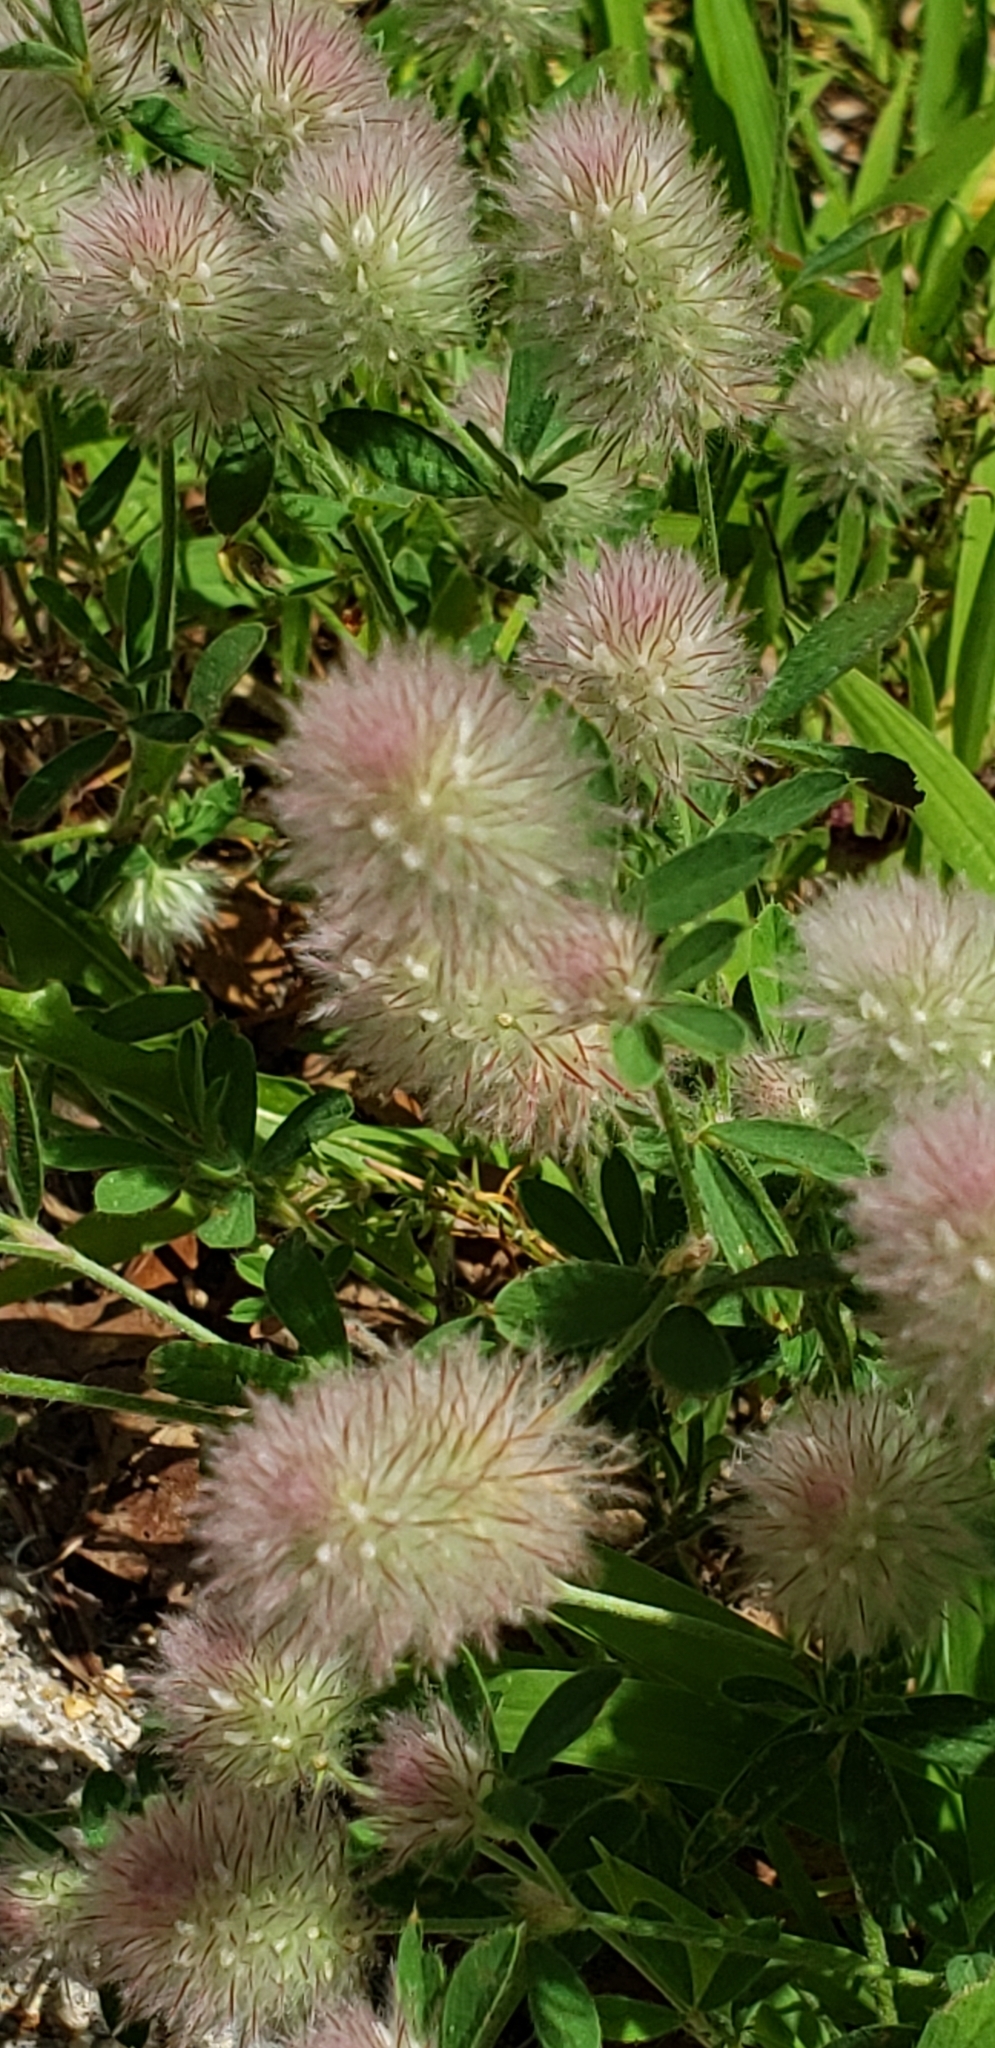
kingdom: Plantae
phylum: Tracheophyta
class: Magnoliopsida
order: Fabales
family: Fabaceae
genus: Trifolium
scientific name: Trifolium arvense
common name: Hare's-foot clover
